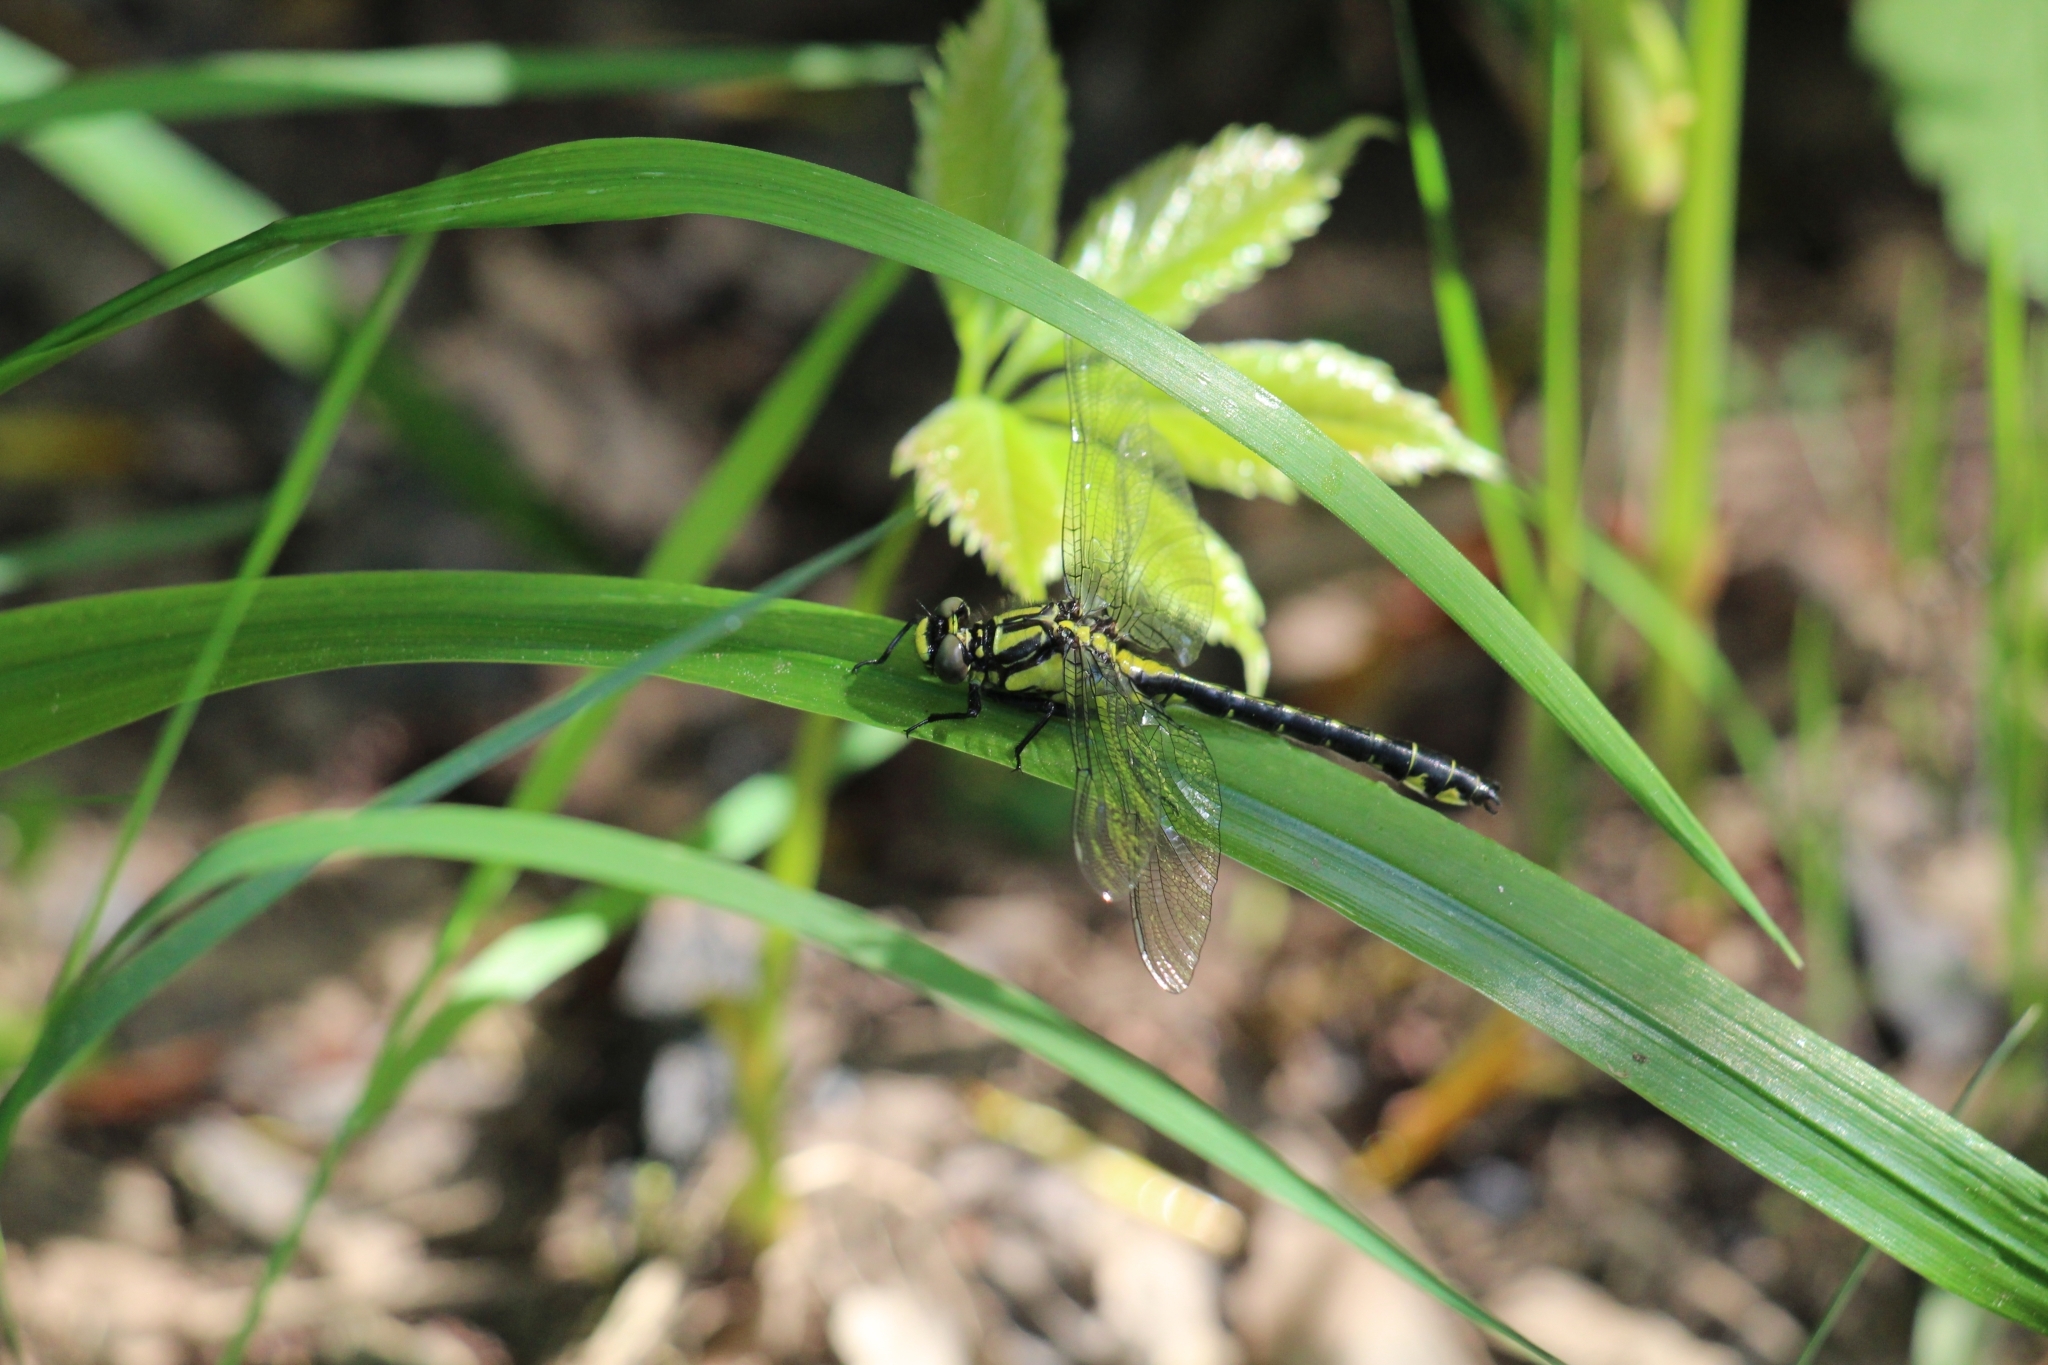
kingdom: Animalia
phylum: Arthropoda
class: Insecta
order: Odonata
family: Gomphidae
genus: Gomphus
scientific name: Gomphus vulgatissimus
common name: Club-tailed dragonfly
